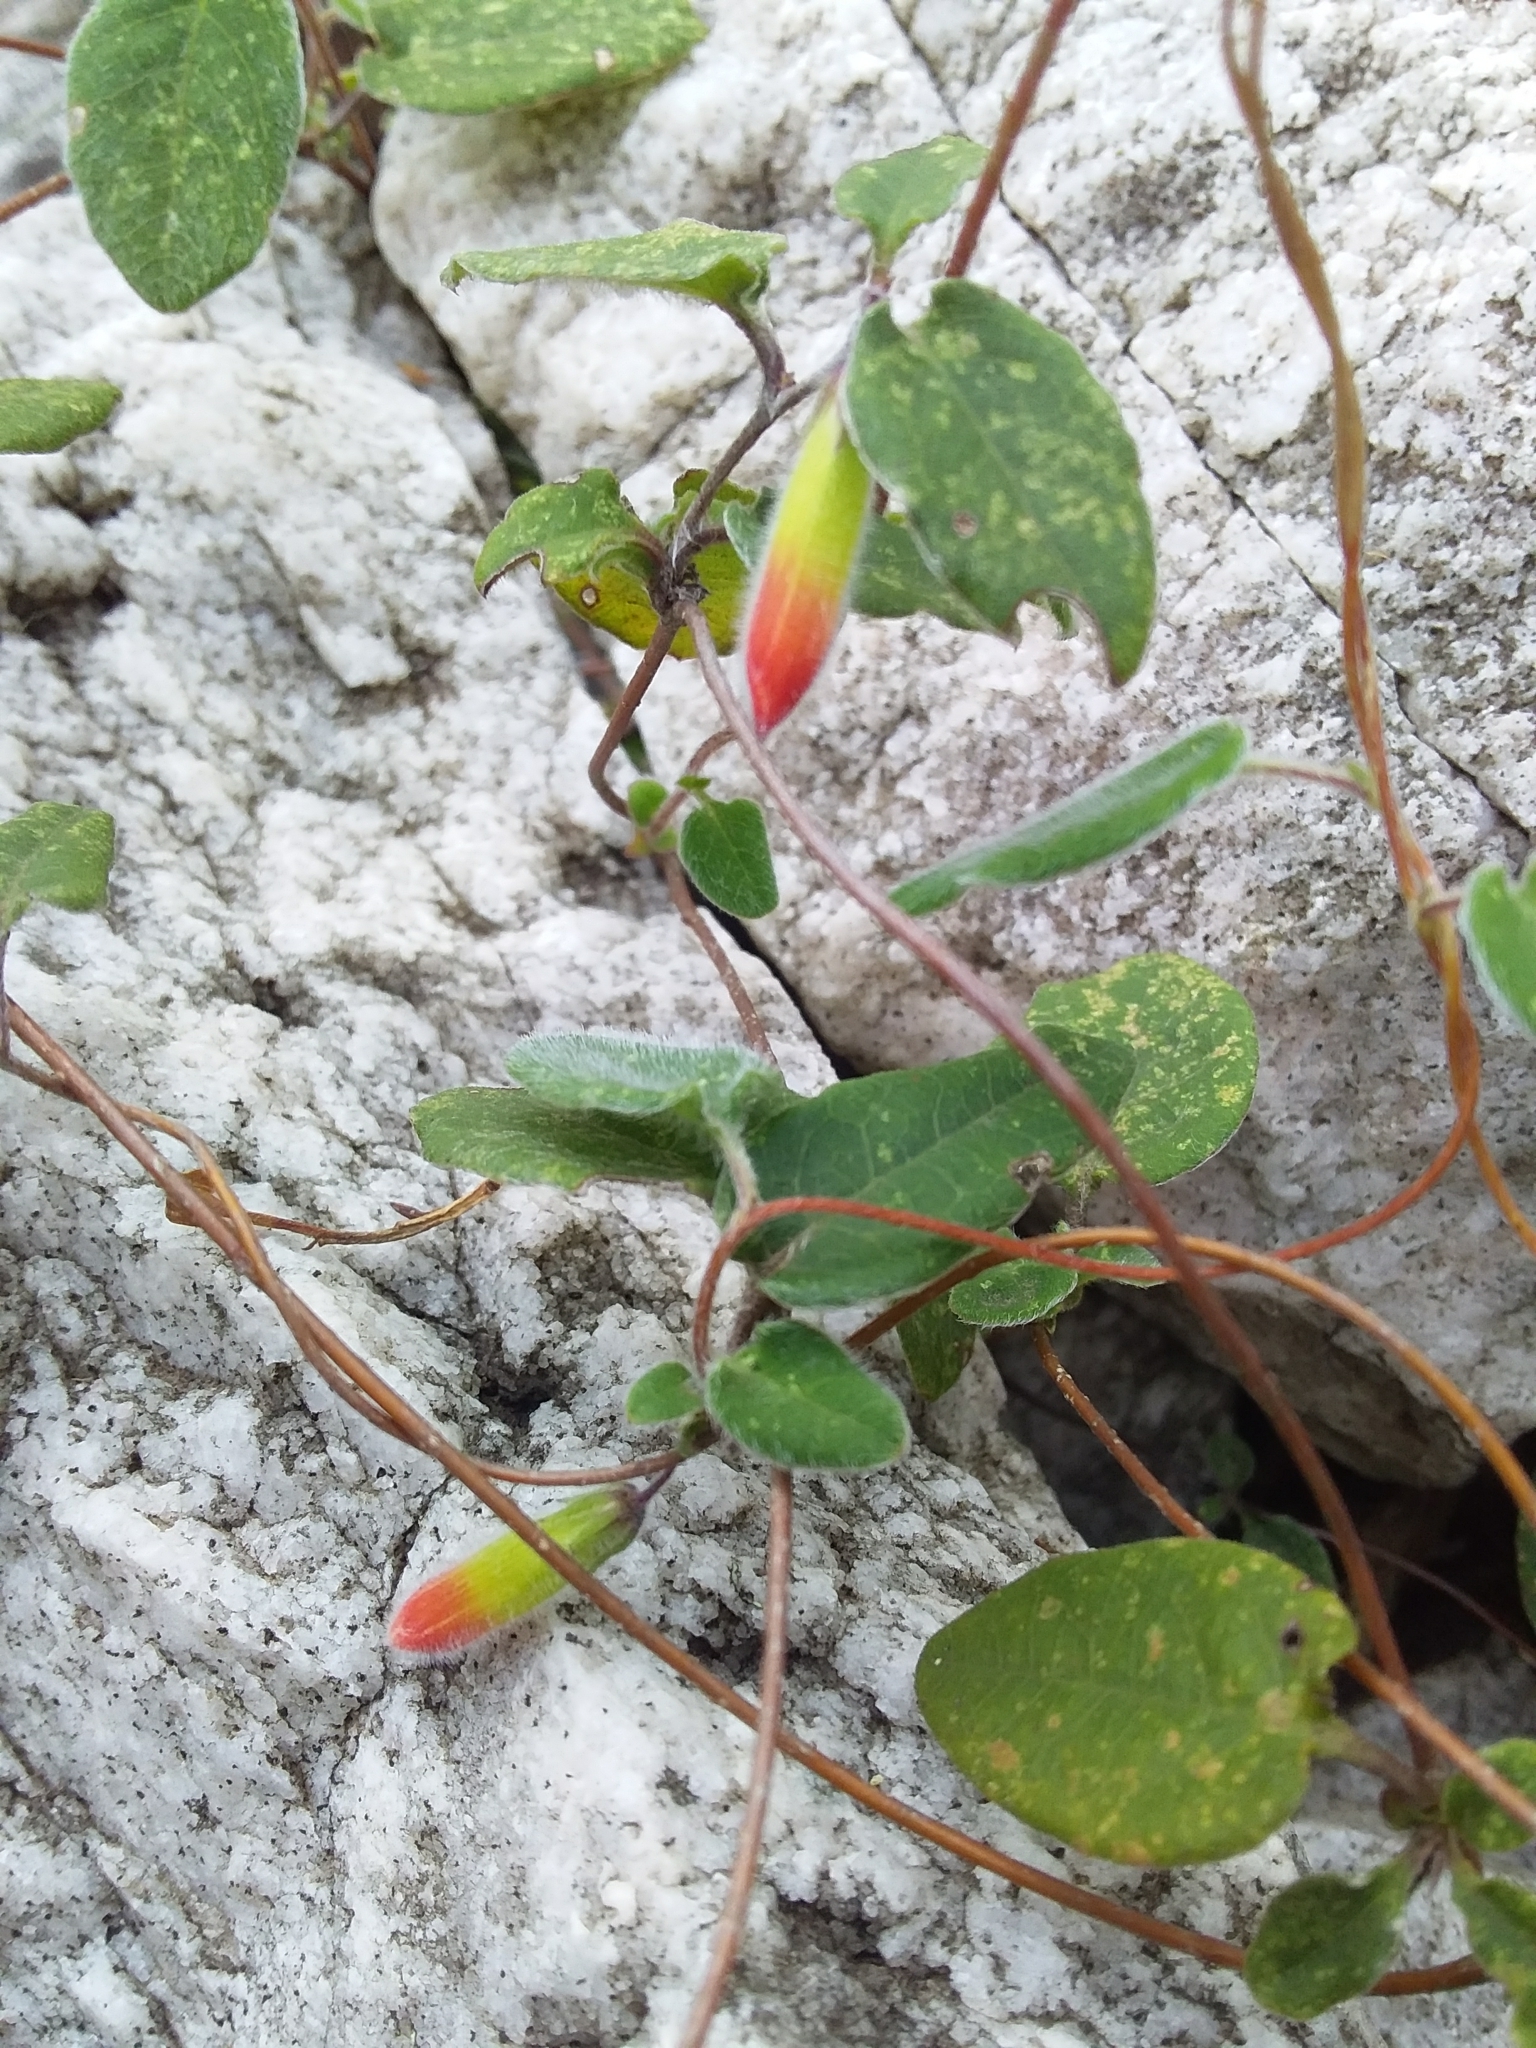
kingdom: Plantae
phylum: Tracheophyta
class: Magnoliopsida
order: Apiales
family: Pittosporaceae
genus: Marianthus
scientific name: Marianthus bignoniaceus
